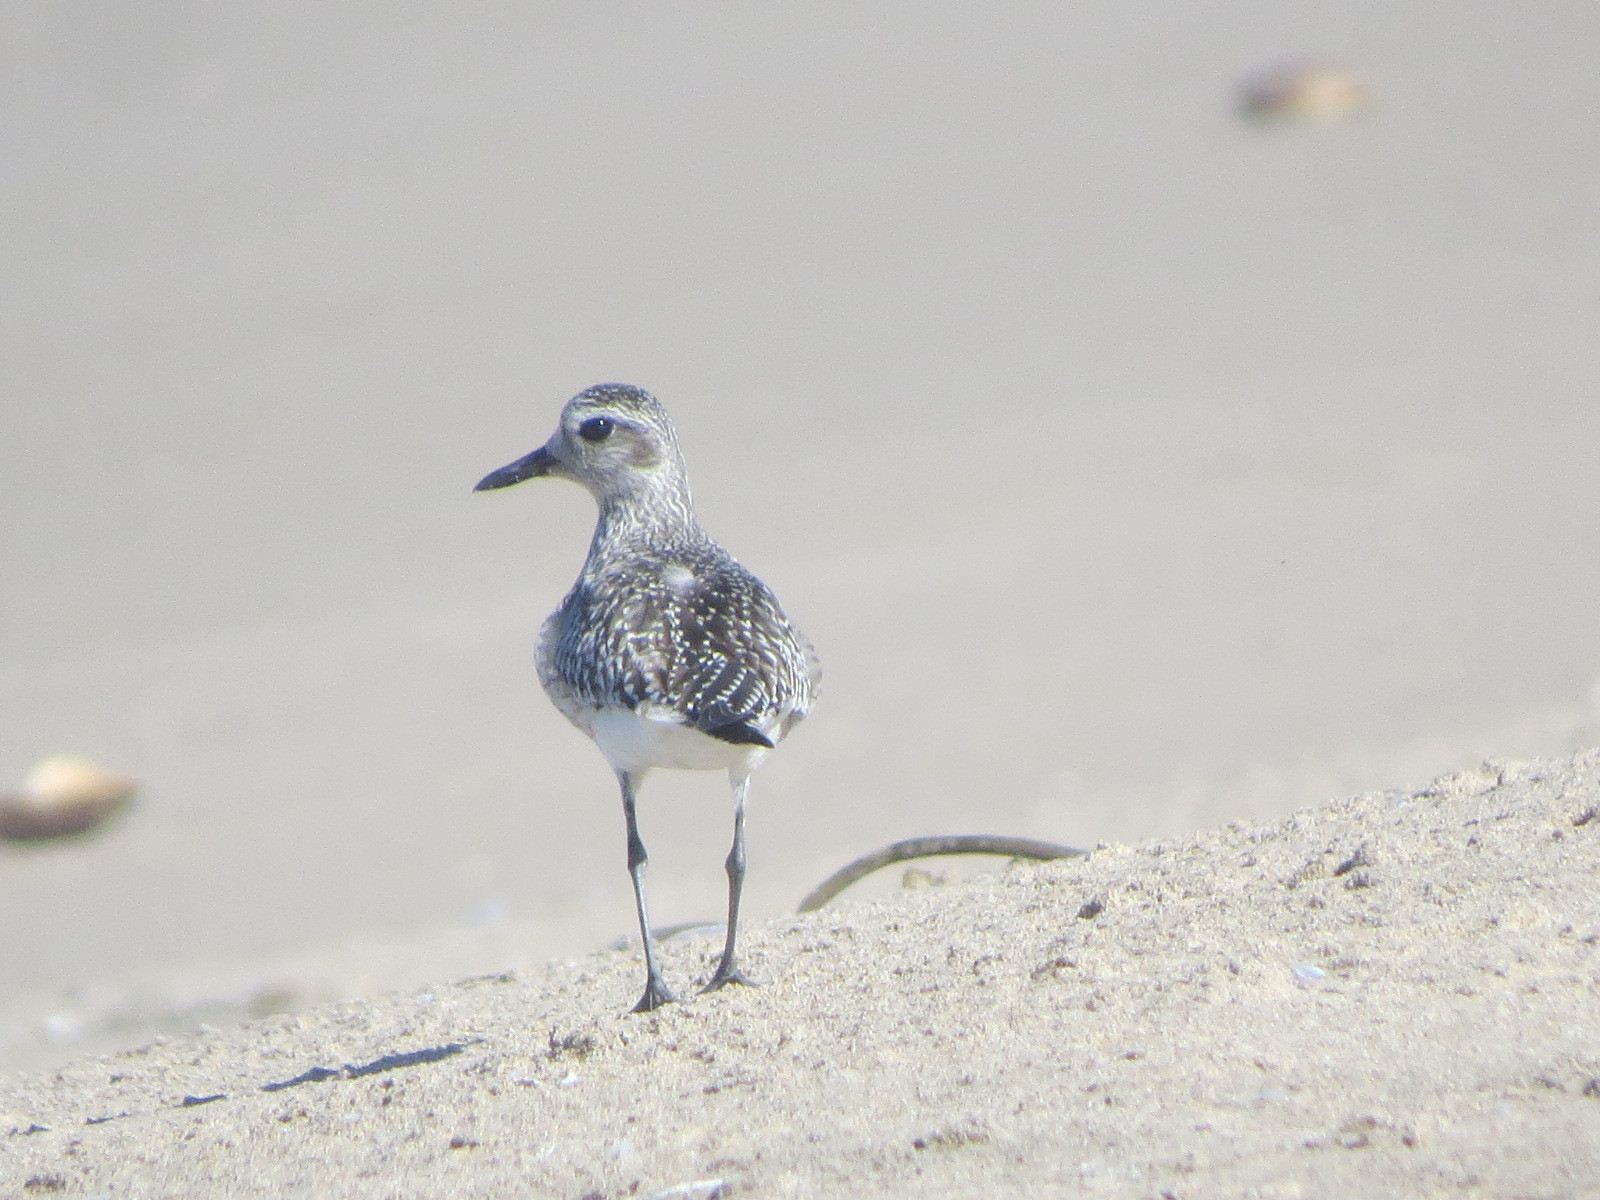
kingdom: Animalia
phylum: Chordata
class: Aves
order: Charadriiformes
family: Charadriidae
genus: Pluvialis
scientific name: Pluvialis squatarola
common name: Grey plover
